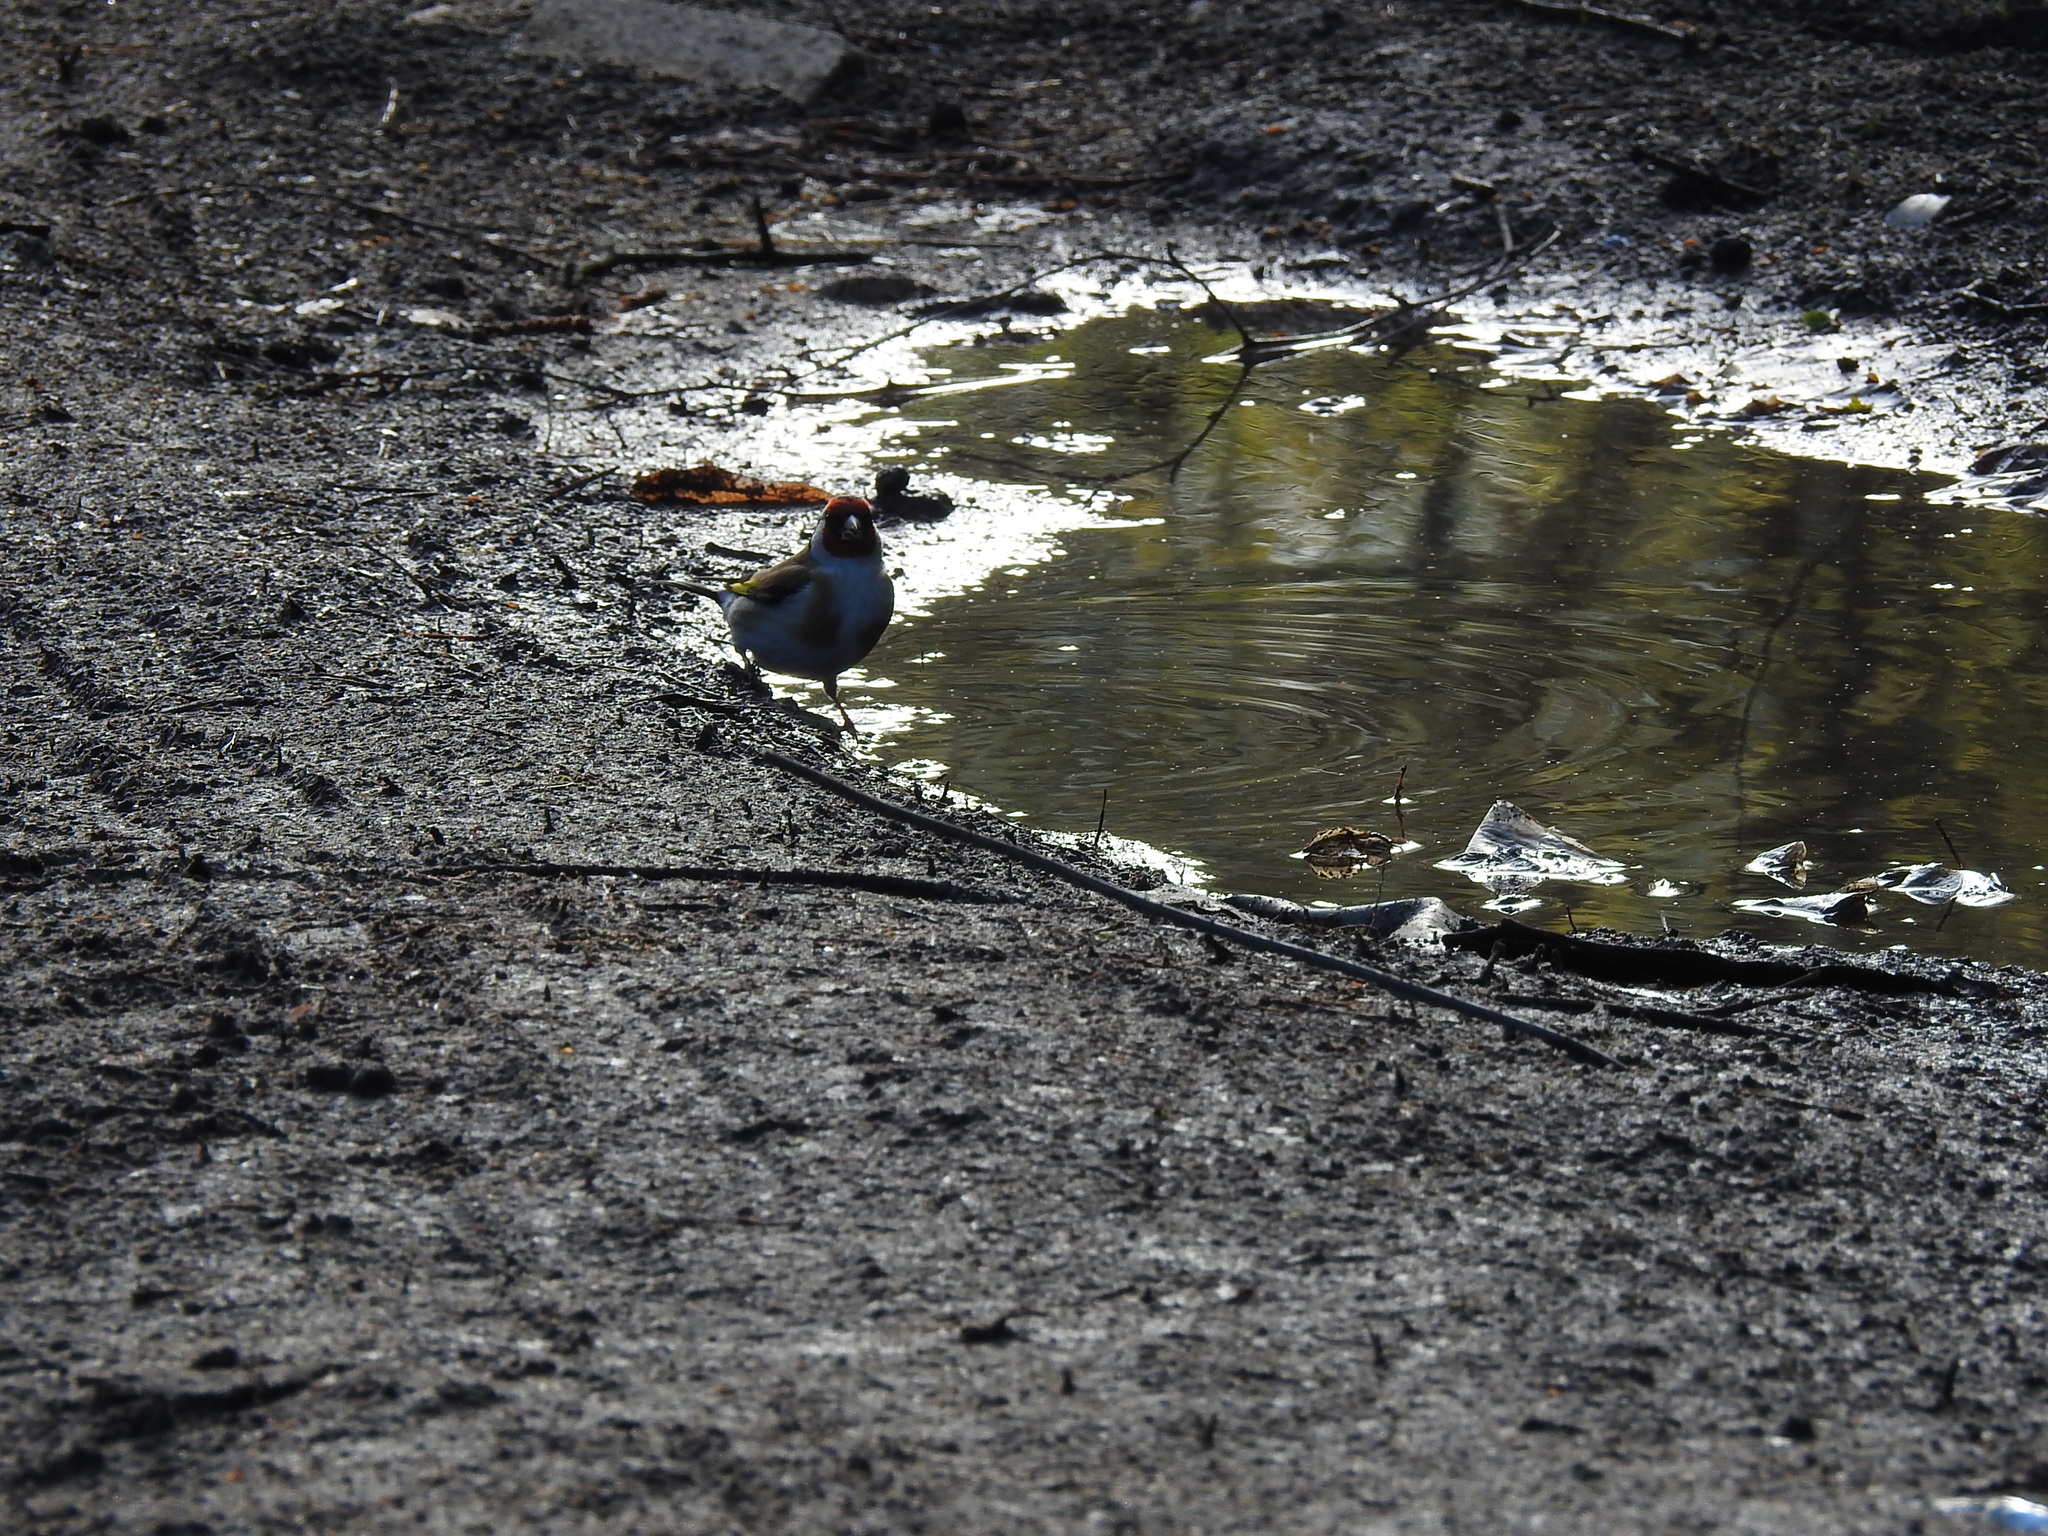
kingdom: Animalia
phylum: Chordata
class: Aves
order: Passeriformes
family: Fringillidae
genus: Carduelis
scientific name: Carduelis carduelis
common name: European goldfinch
